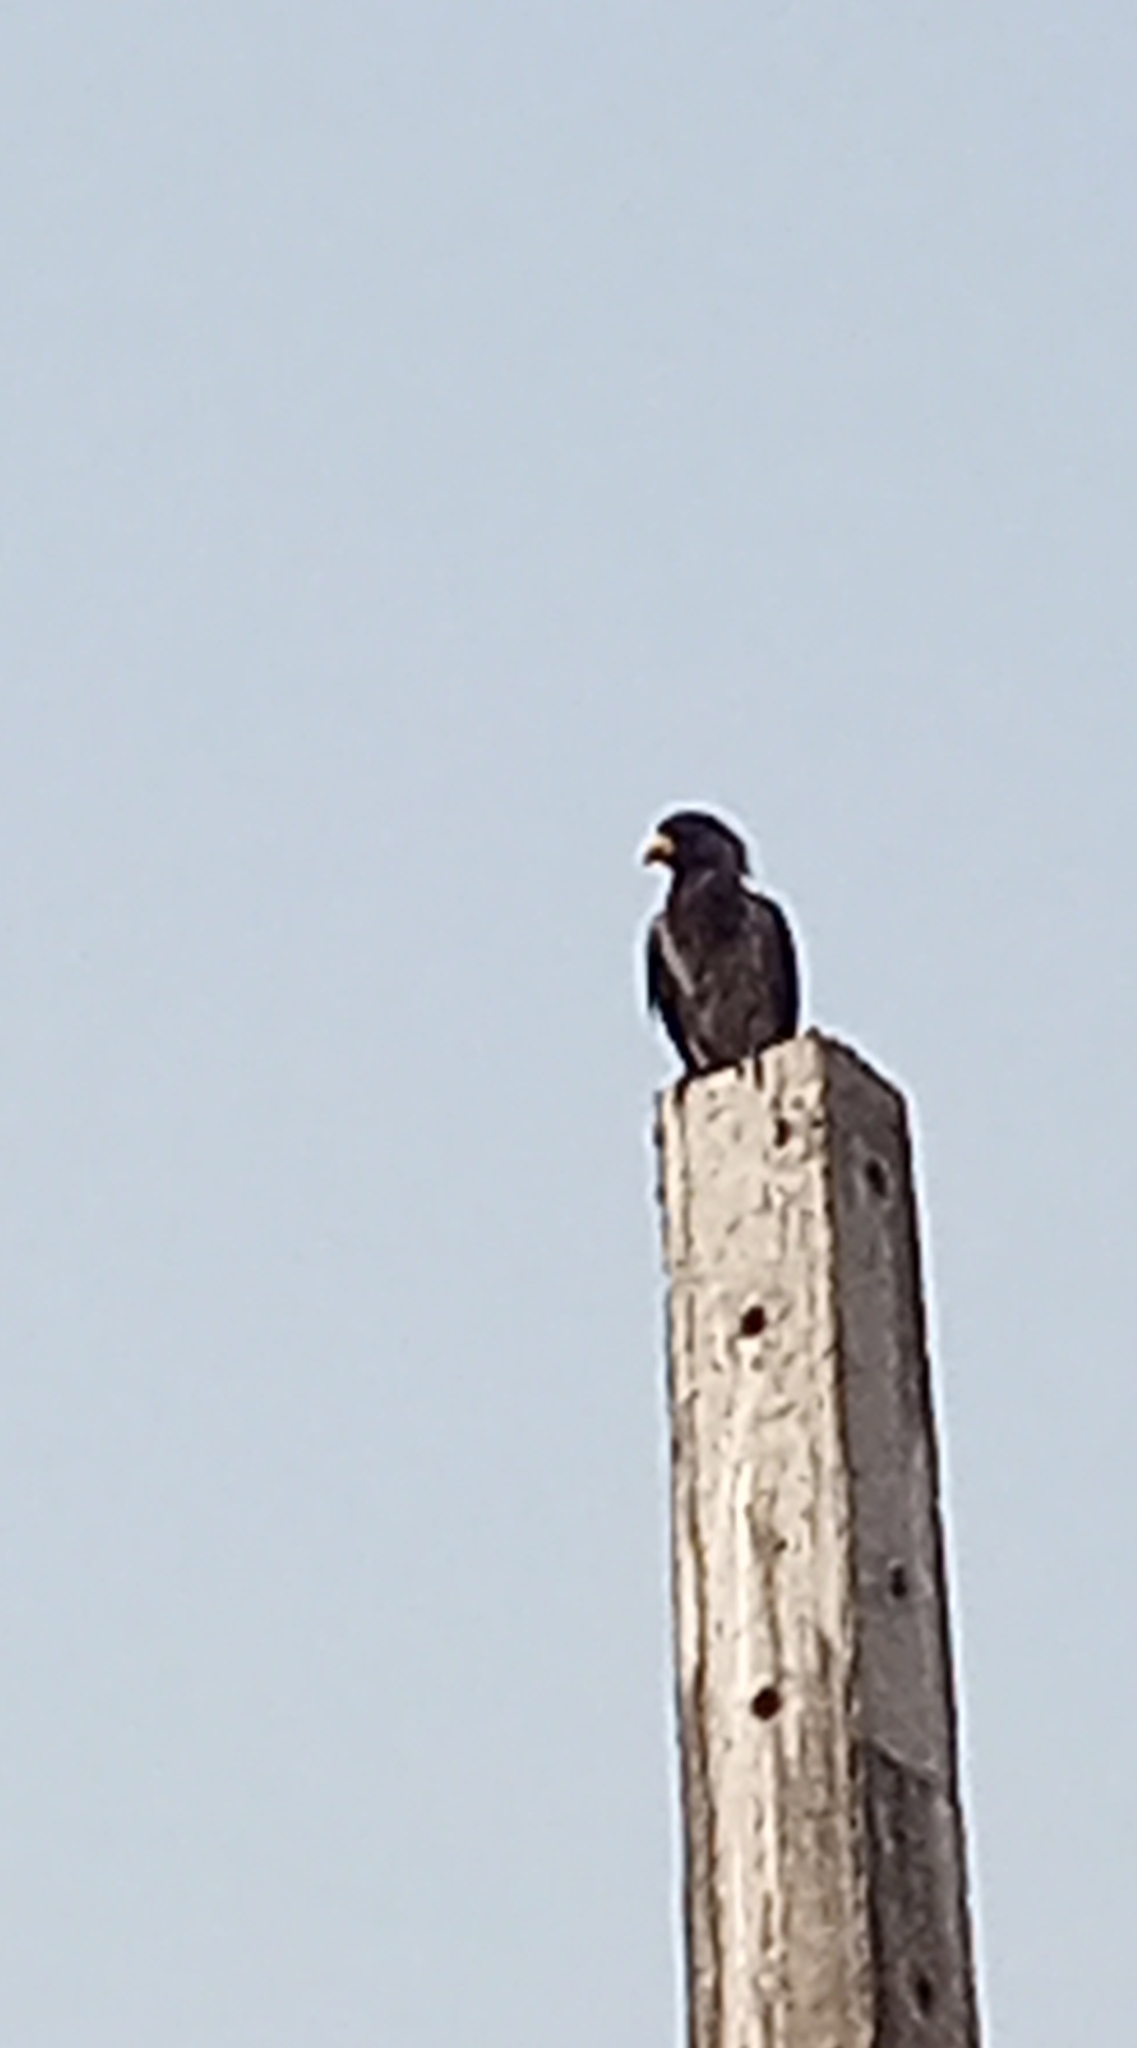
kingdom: Animalia
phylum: Chordata
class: Aves
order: Musophagiformes
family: Musophagidae
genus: Crinifer
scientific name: Crinifer piscator
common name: Western plantain-eater
